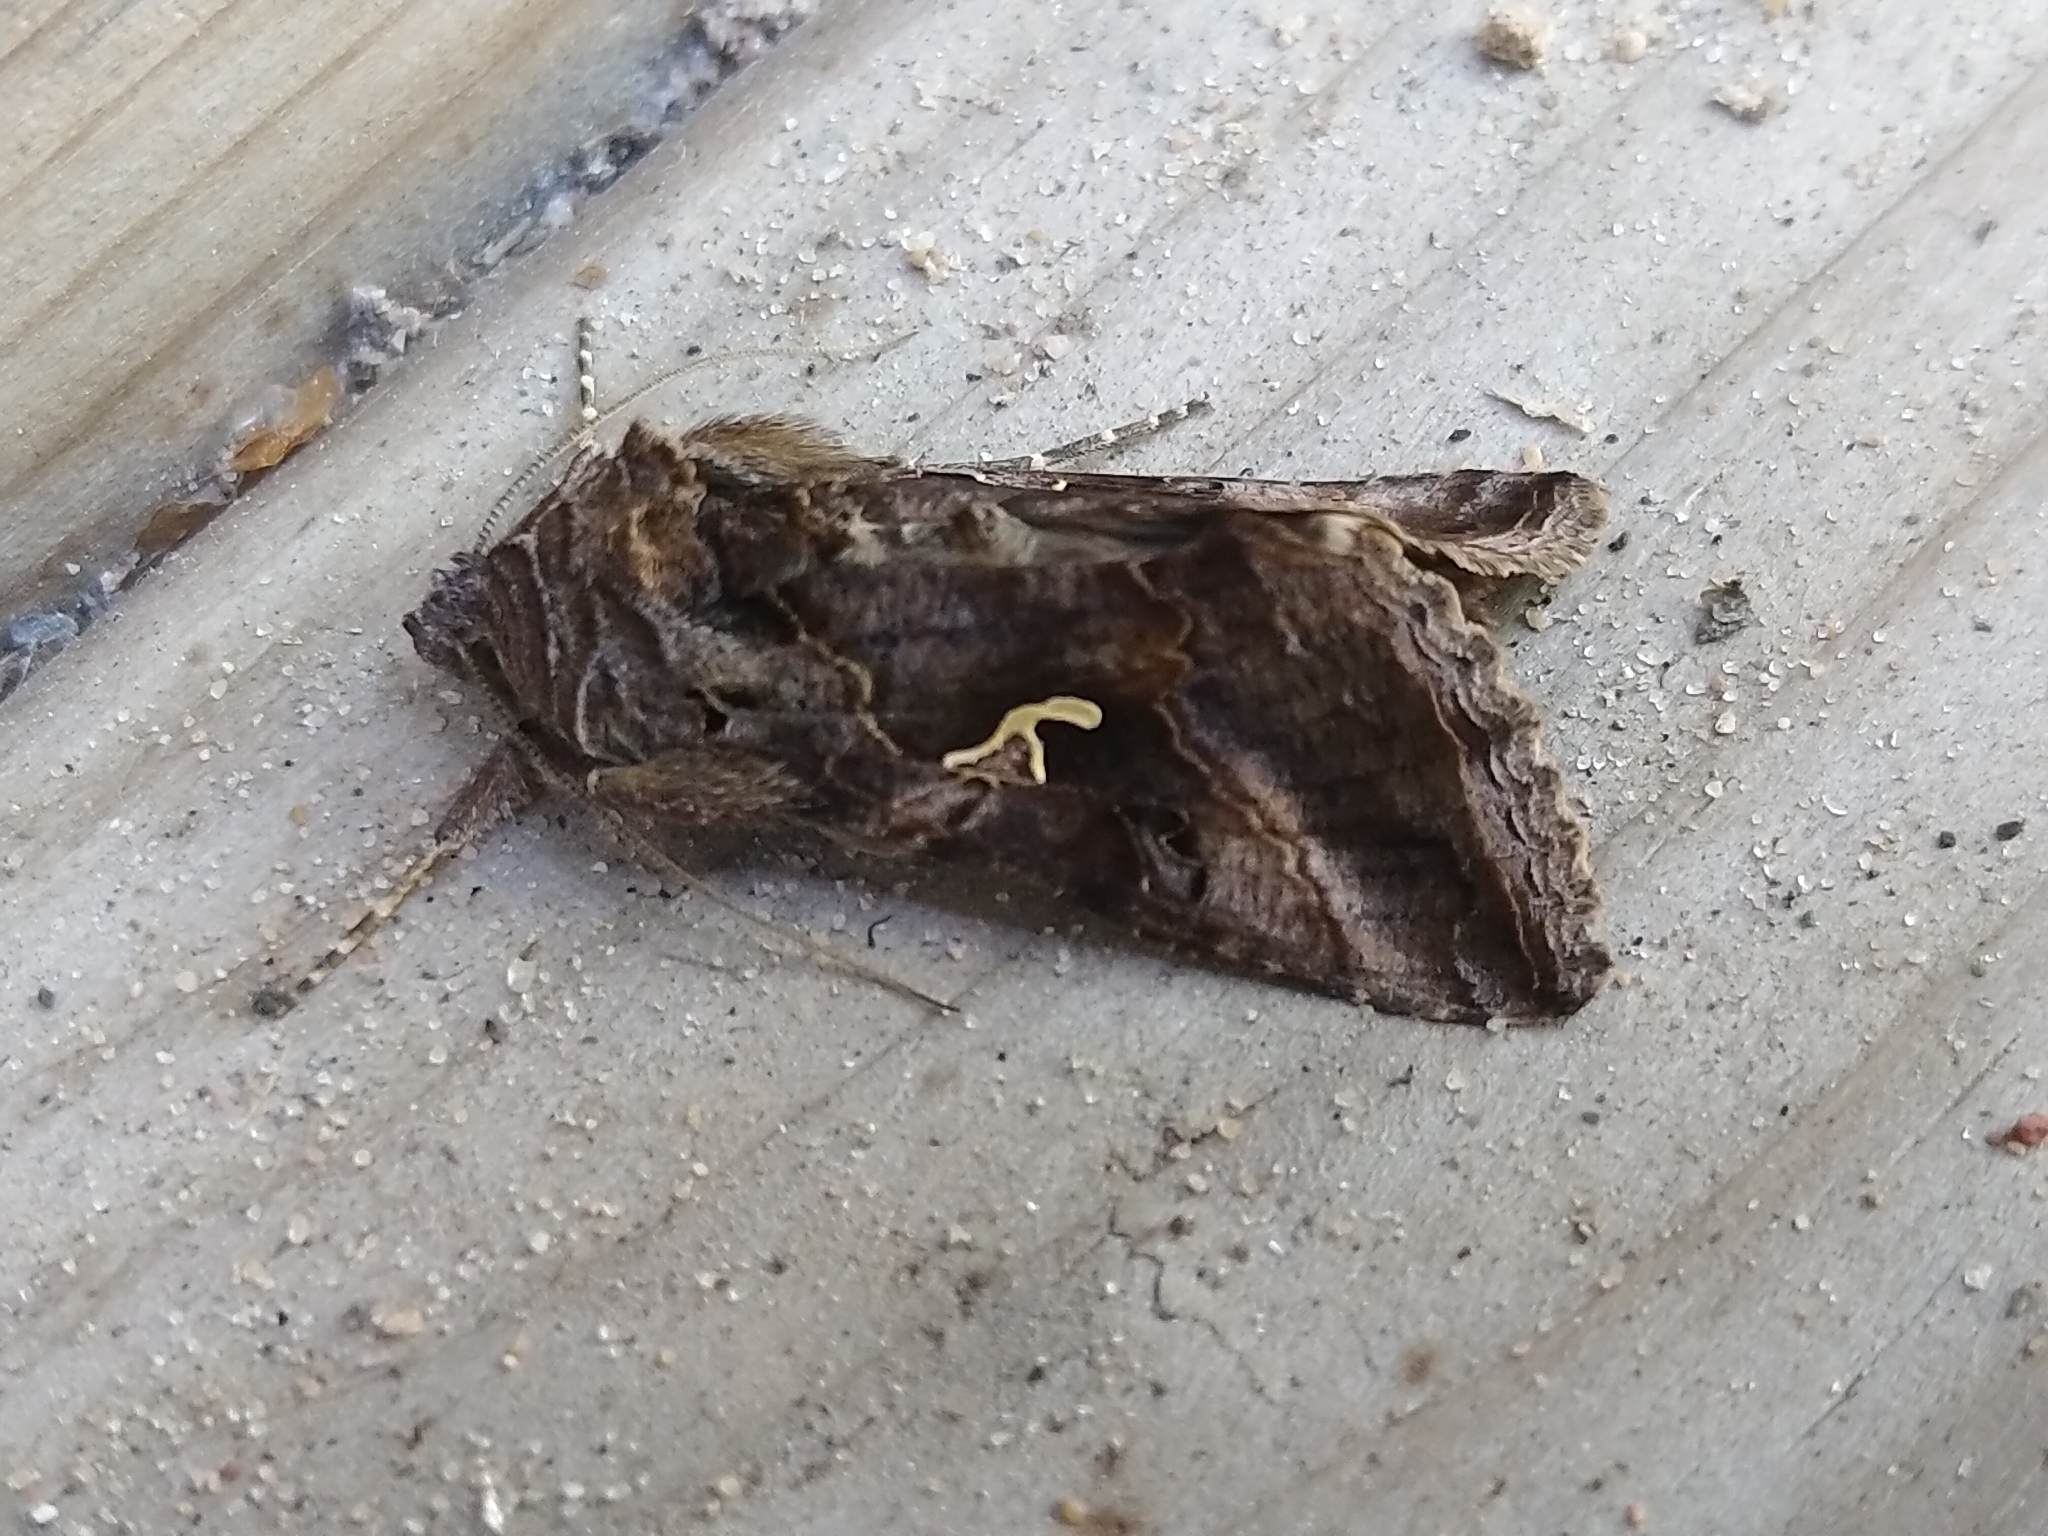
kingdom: Animalia
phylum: Arthropoda
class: Insecta
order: Lepidoptera
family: Noctuidae
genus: Autographa
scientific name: Autographa gamma
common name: Silver y
